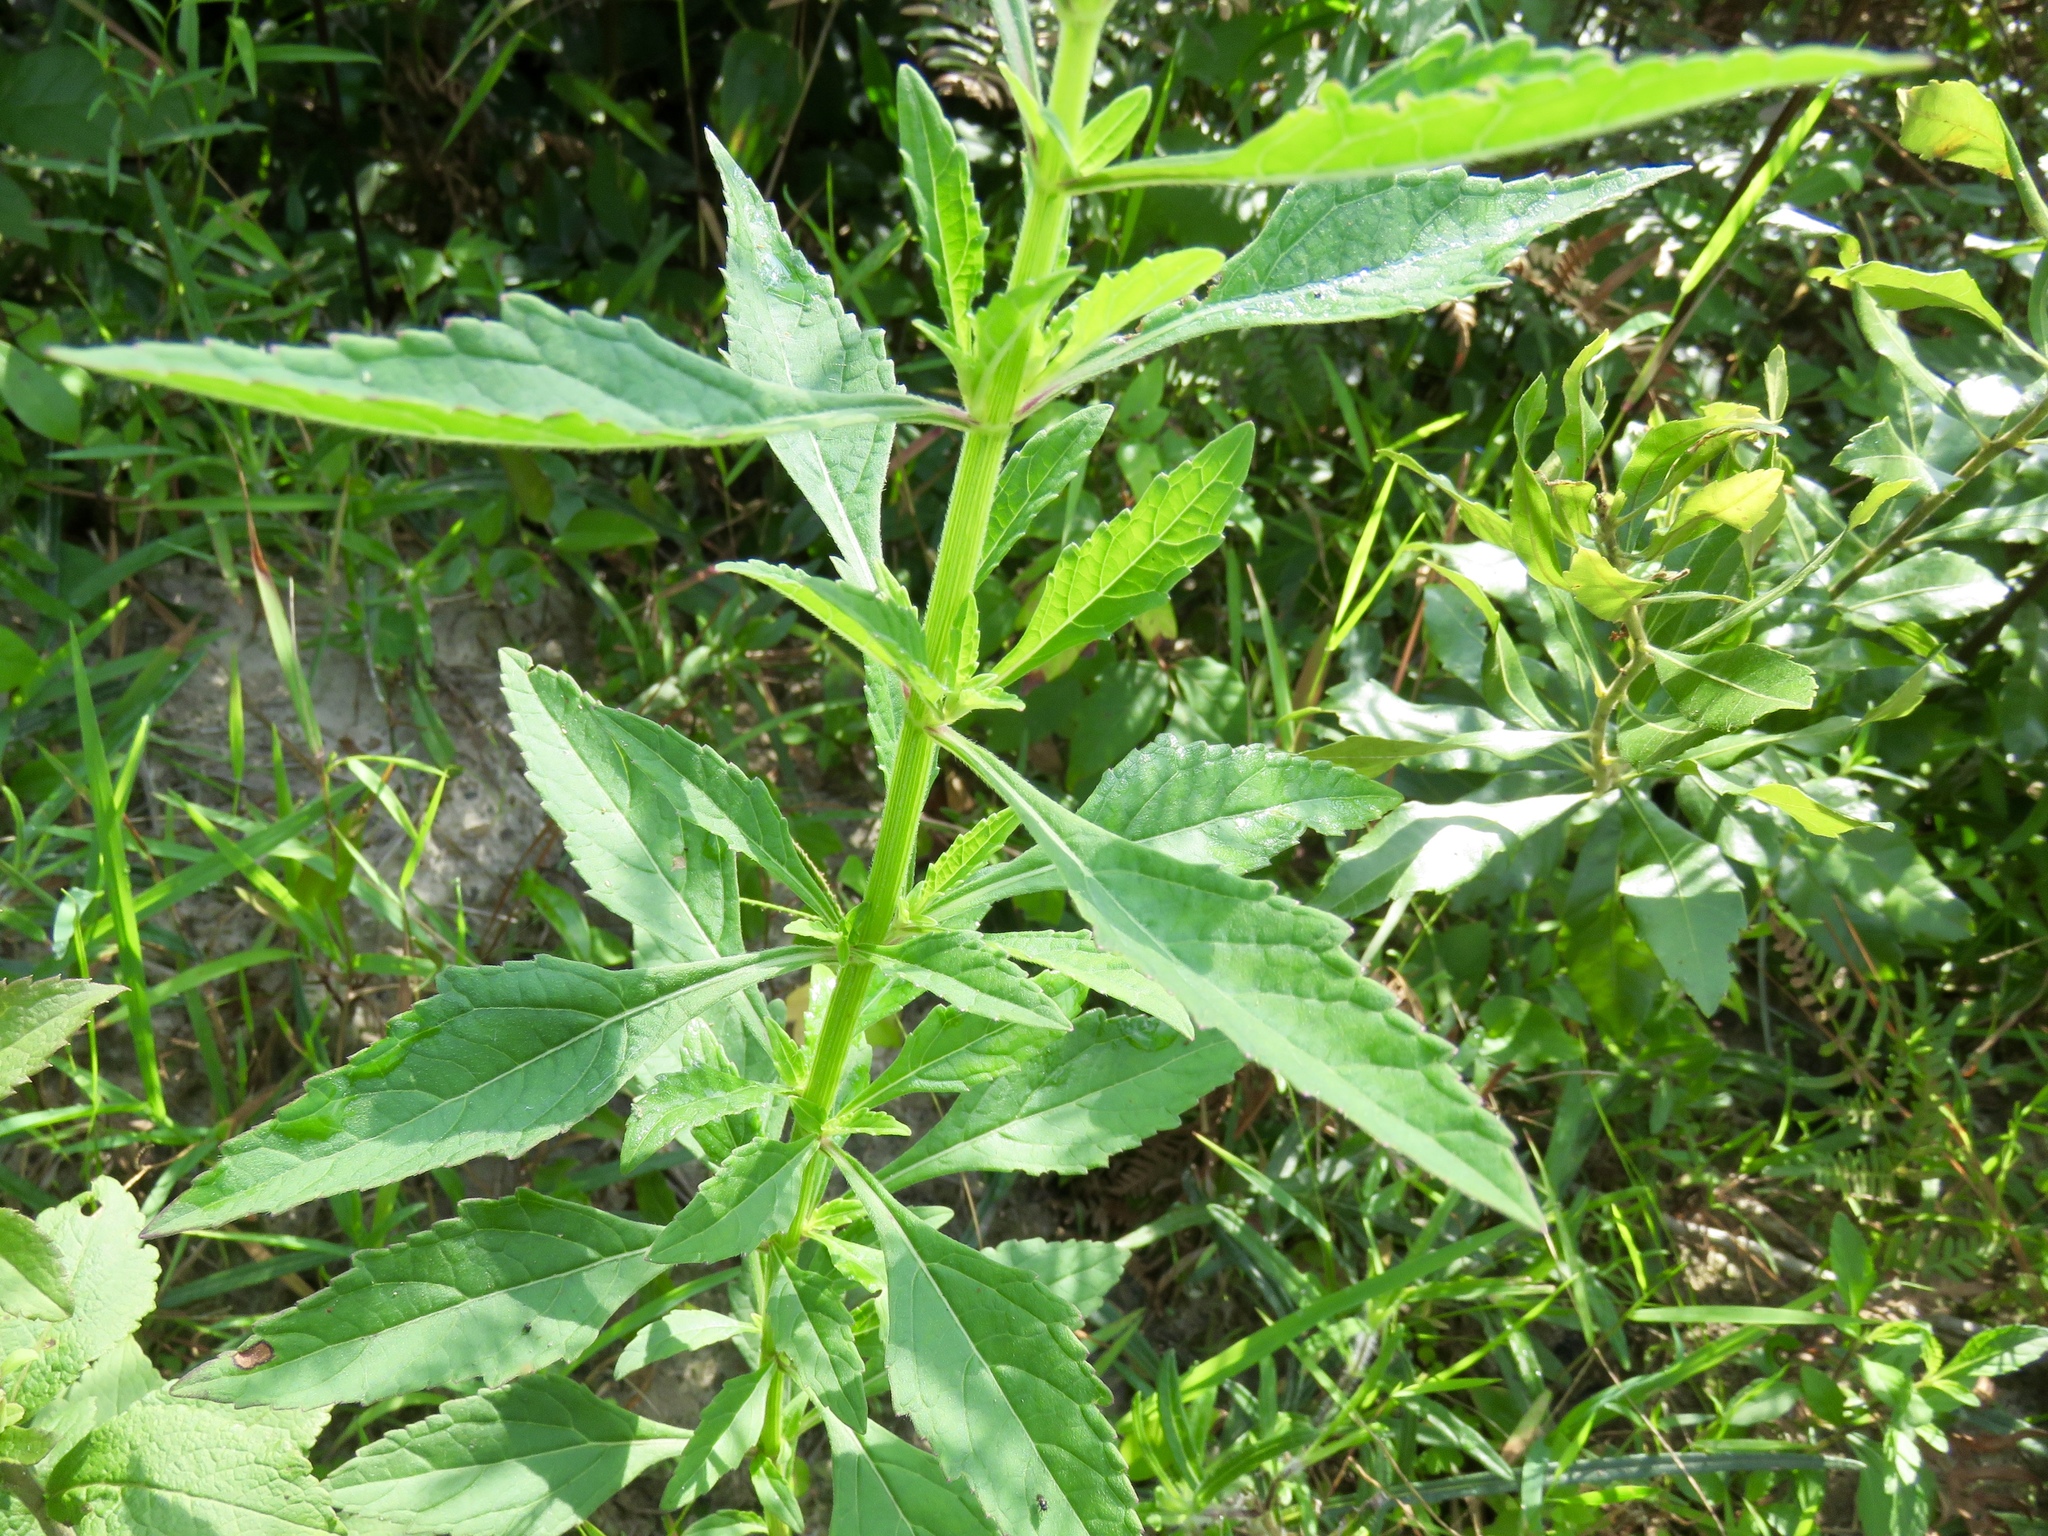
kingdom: Plantae
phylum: Tracheophyta
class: Magnoliopsida
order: Lamiales
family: Lamiaceae
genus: Hyptis
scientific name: Hyptis alata
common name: Cluster bush-mint
